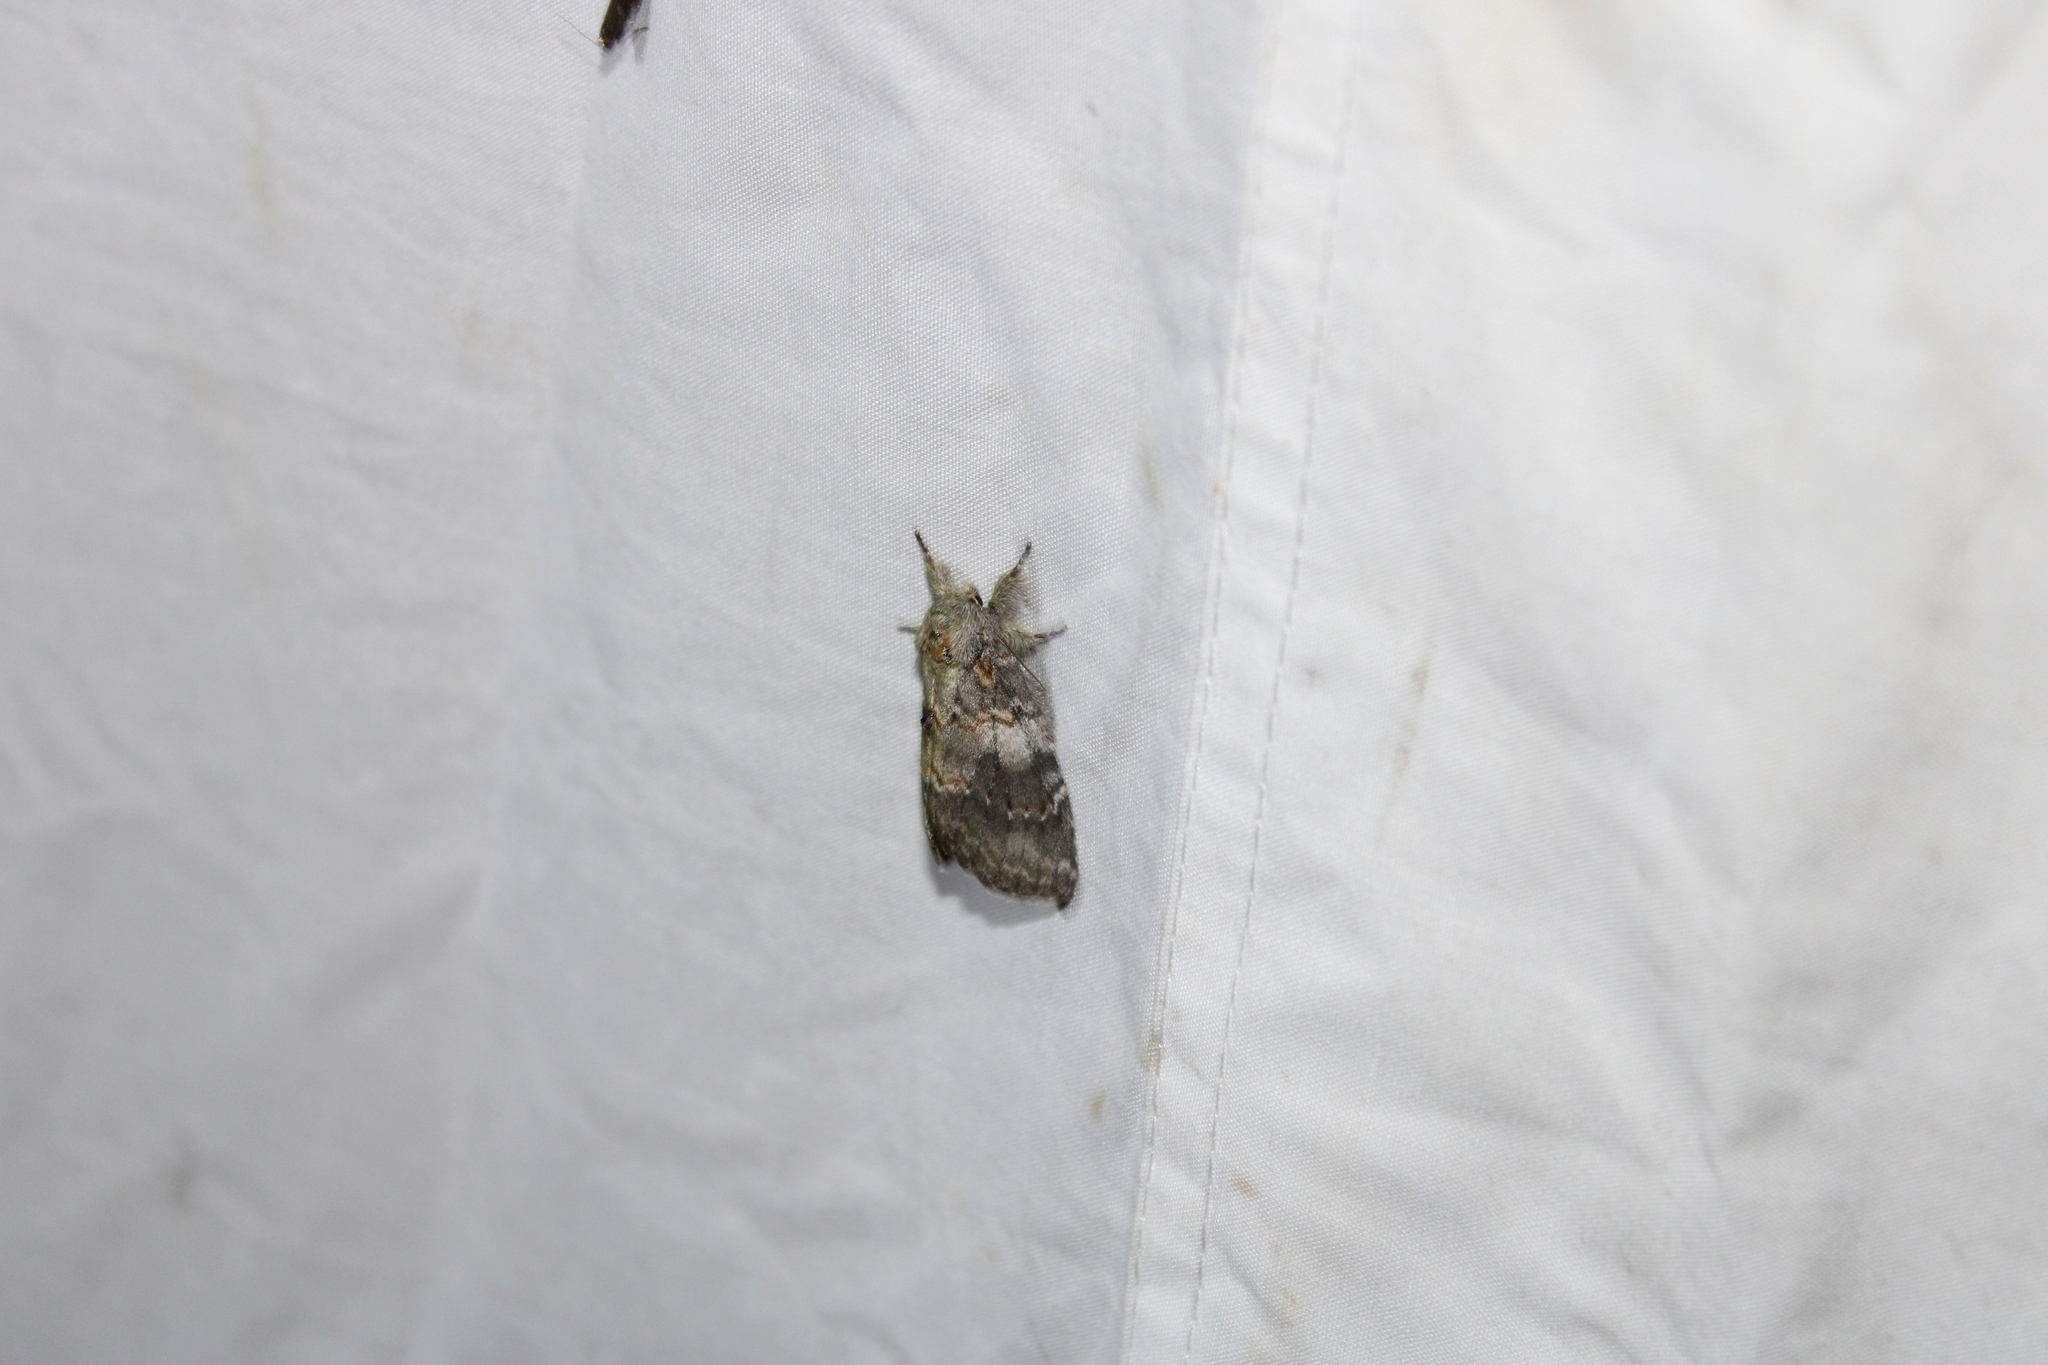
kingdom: Animalia
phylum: Arthropoda
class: Insecta
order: Lepidoptera
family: Notodontidae
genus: Peridea
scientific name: Peridea angulosa
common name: Angulose prominent
